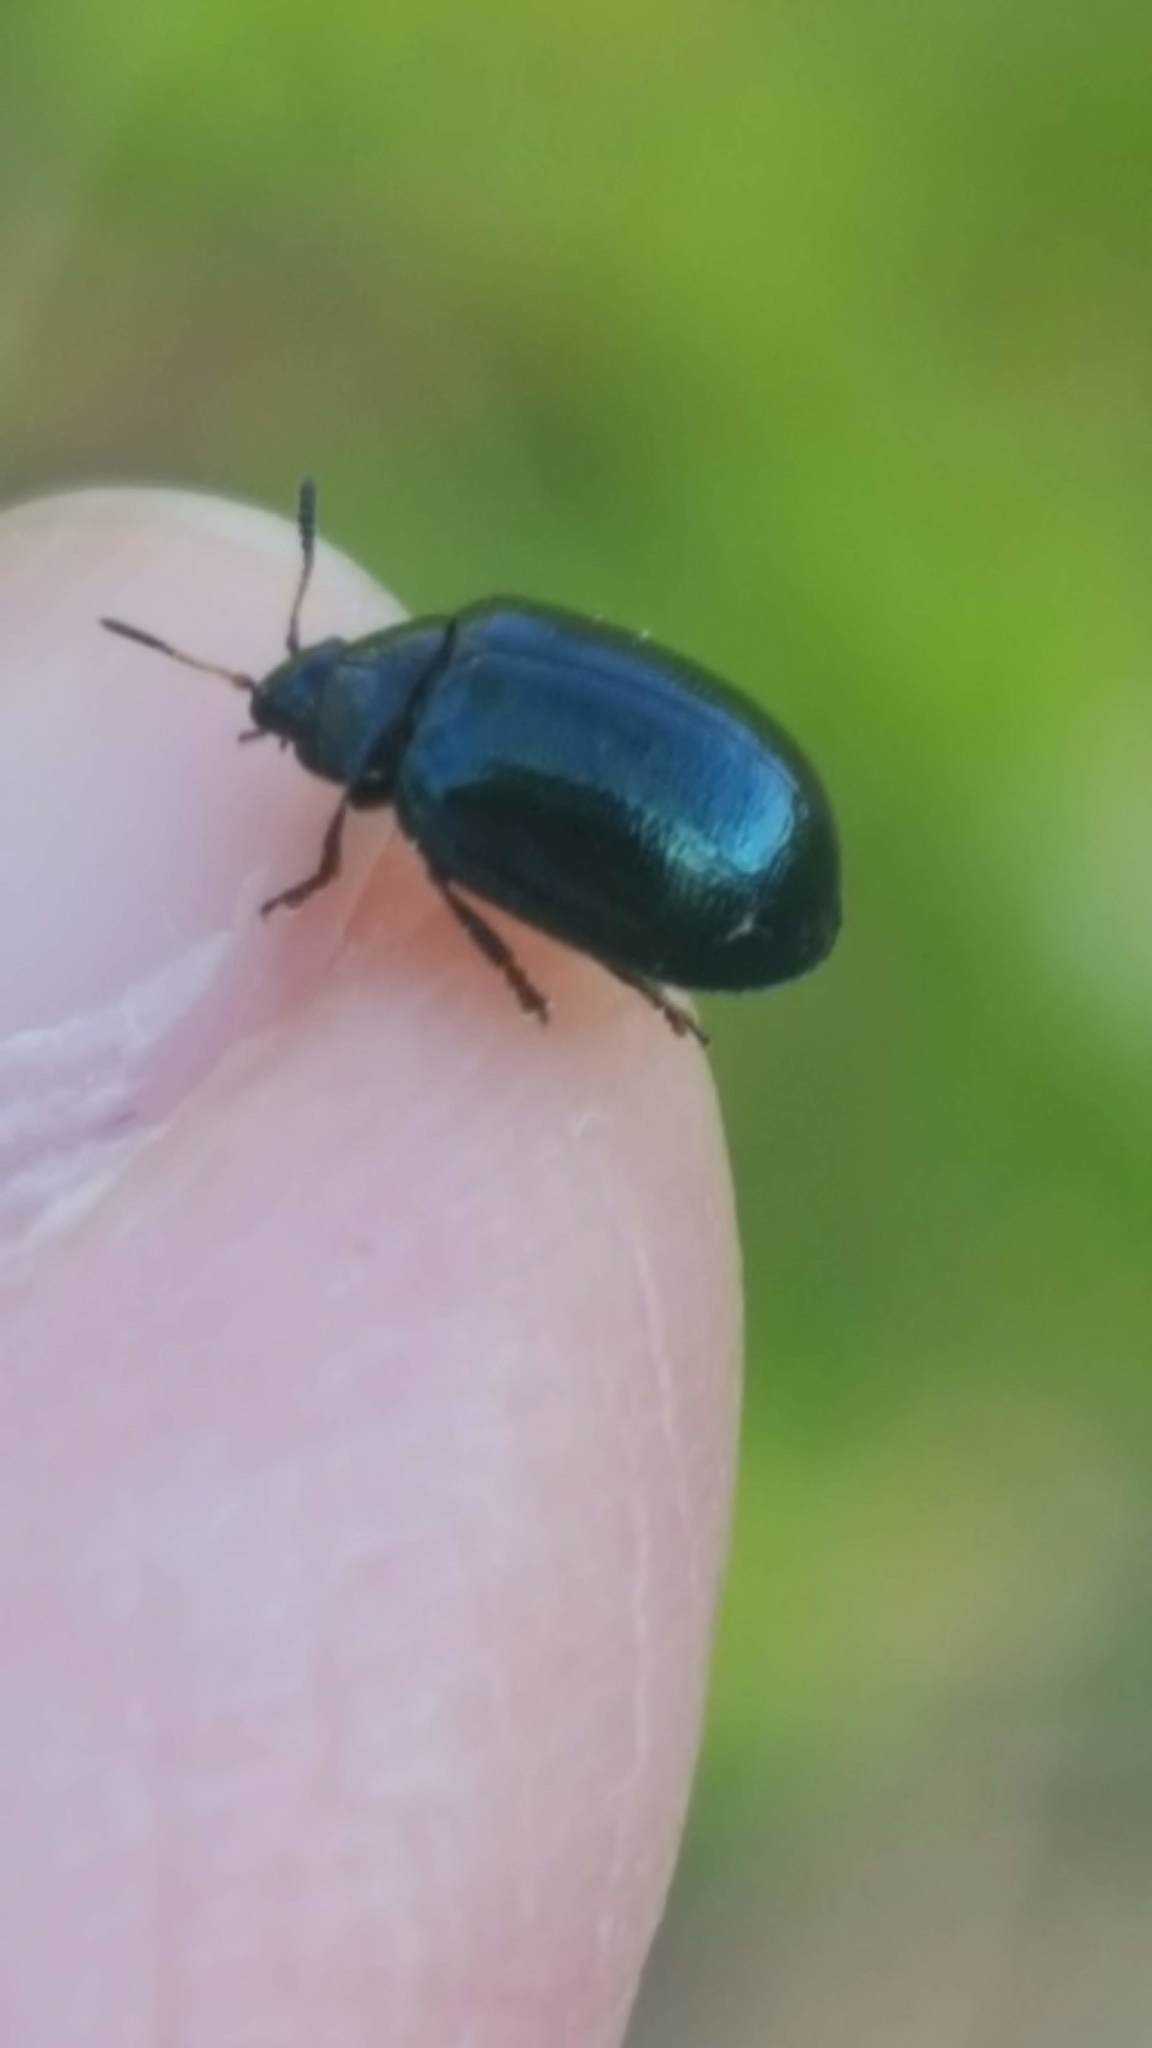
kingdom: Animalia
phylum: Arthropoda
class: Insecta
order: Coleoptera
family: Chrysomelidae
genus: Plagiodera
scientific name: Plagiodera versicolora
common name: Imported willow leaf beetle
